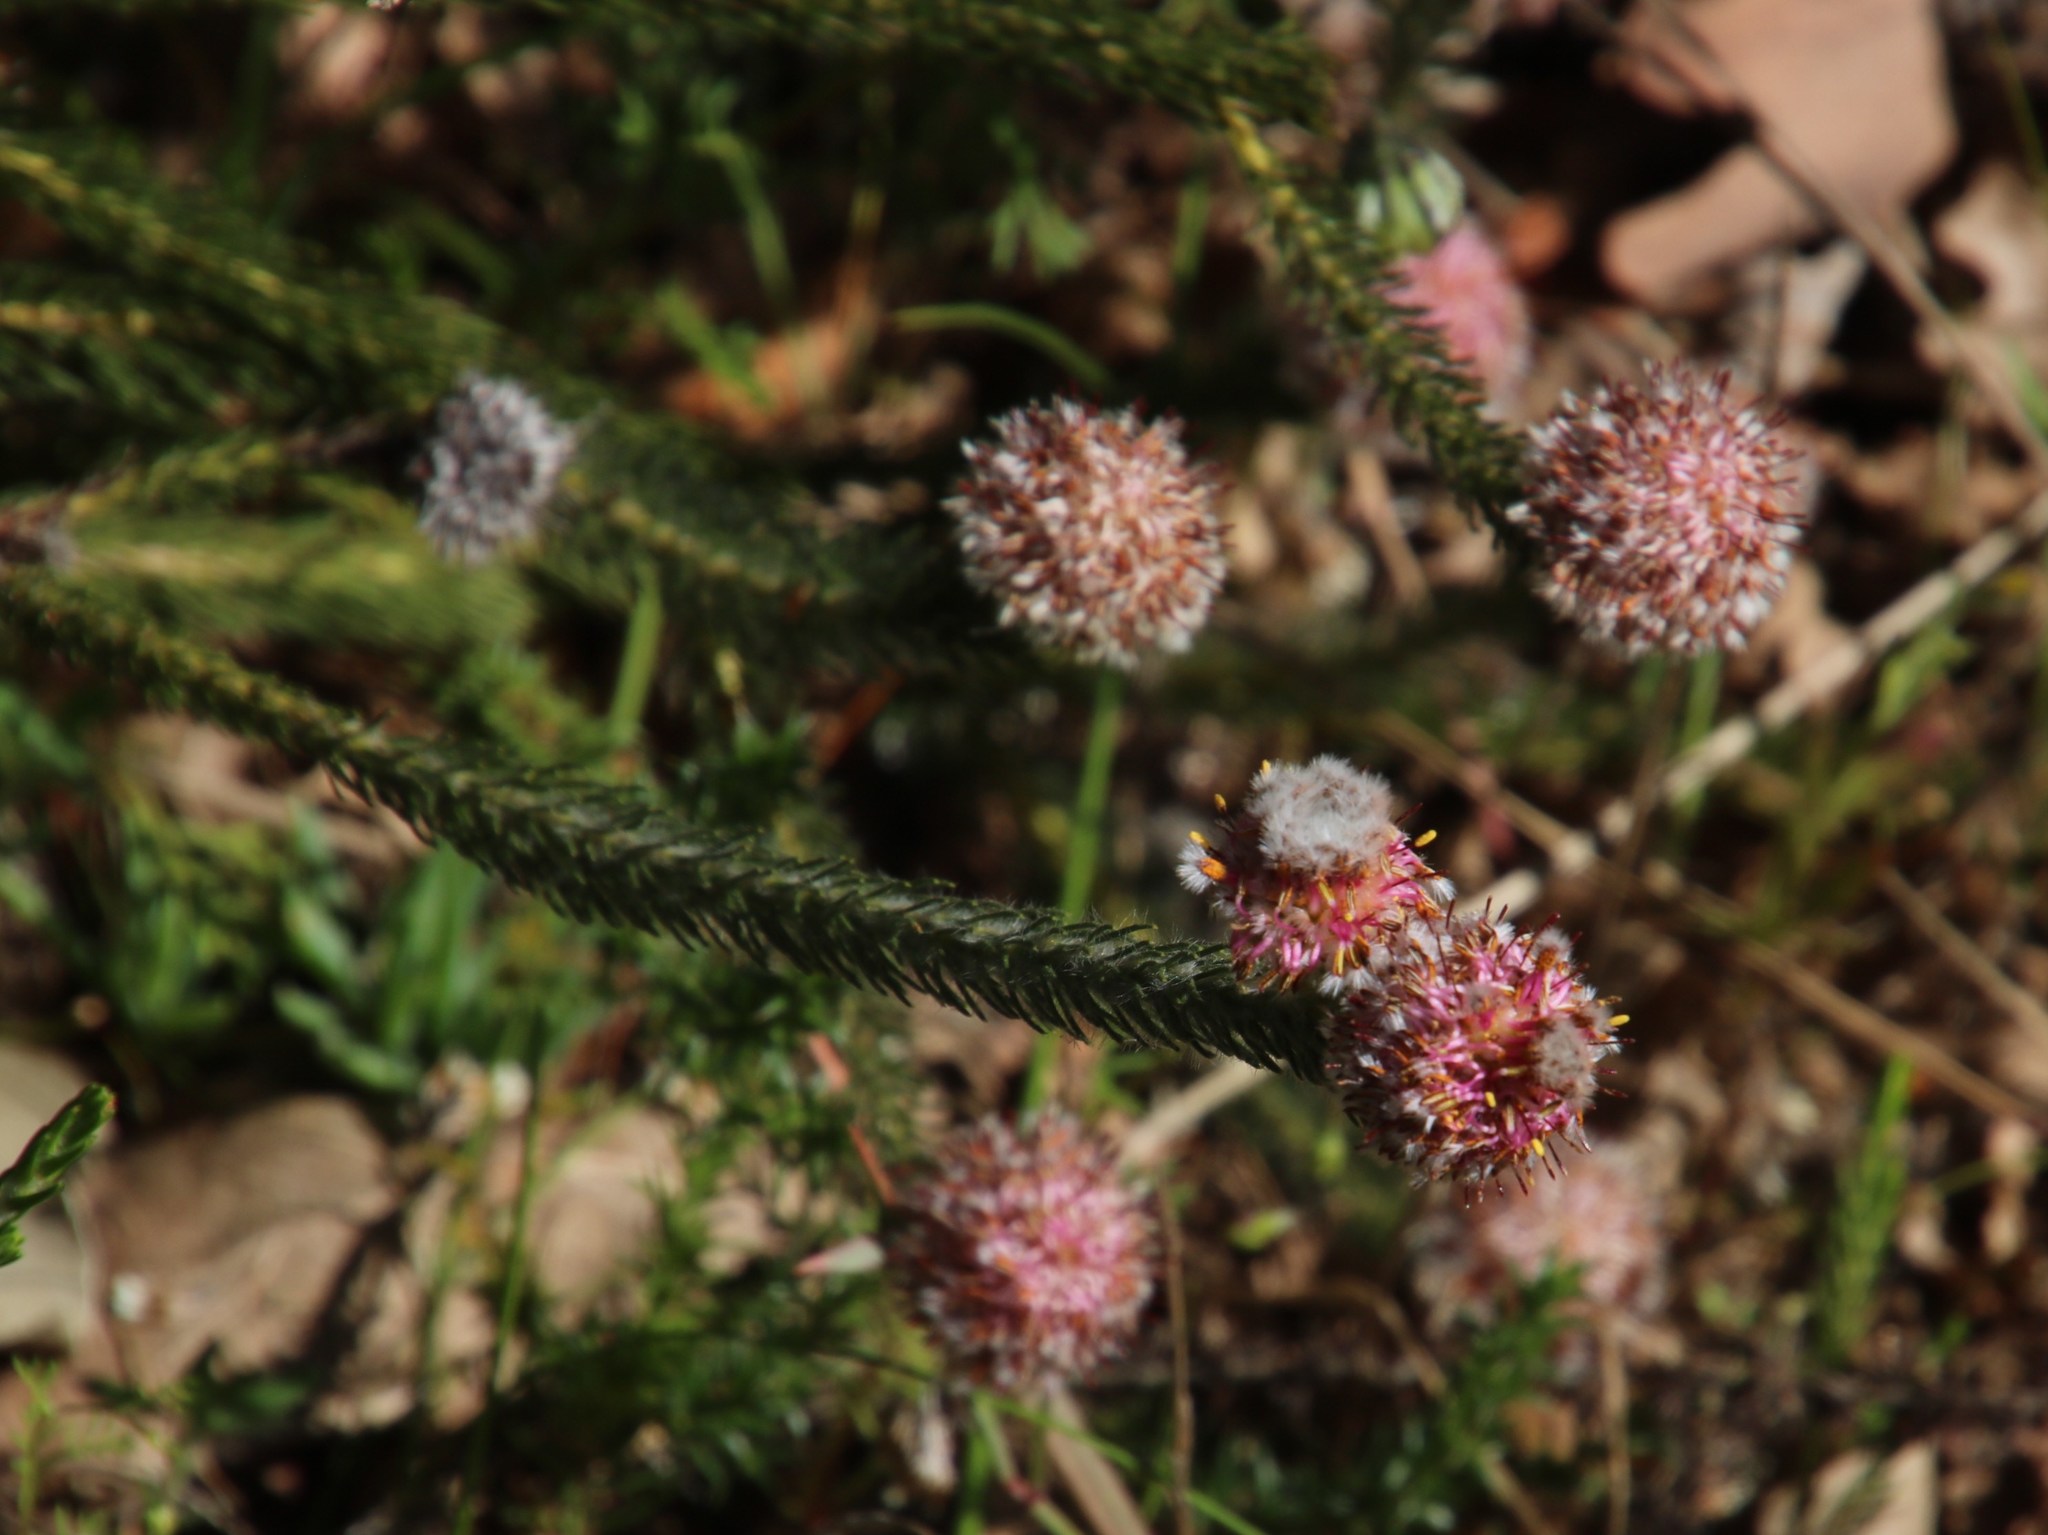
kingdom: Plantae
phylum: Tracheophyta
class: Magnoliopsida
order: Proteales
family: Proteaceae
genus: Serruria
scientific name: Serruria trilopha
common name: Trident spiderhead
